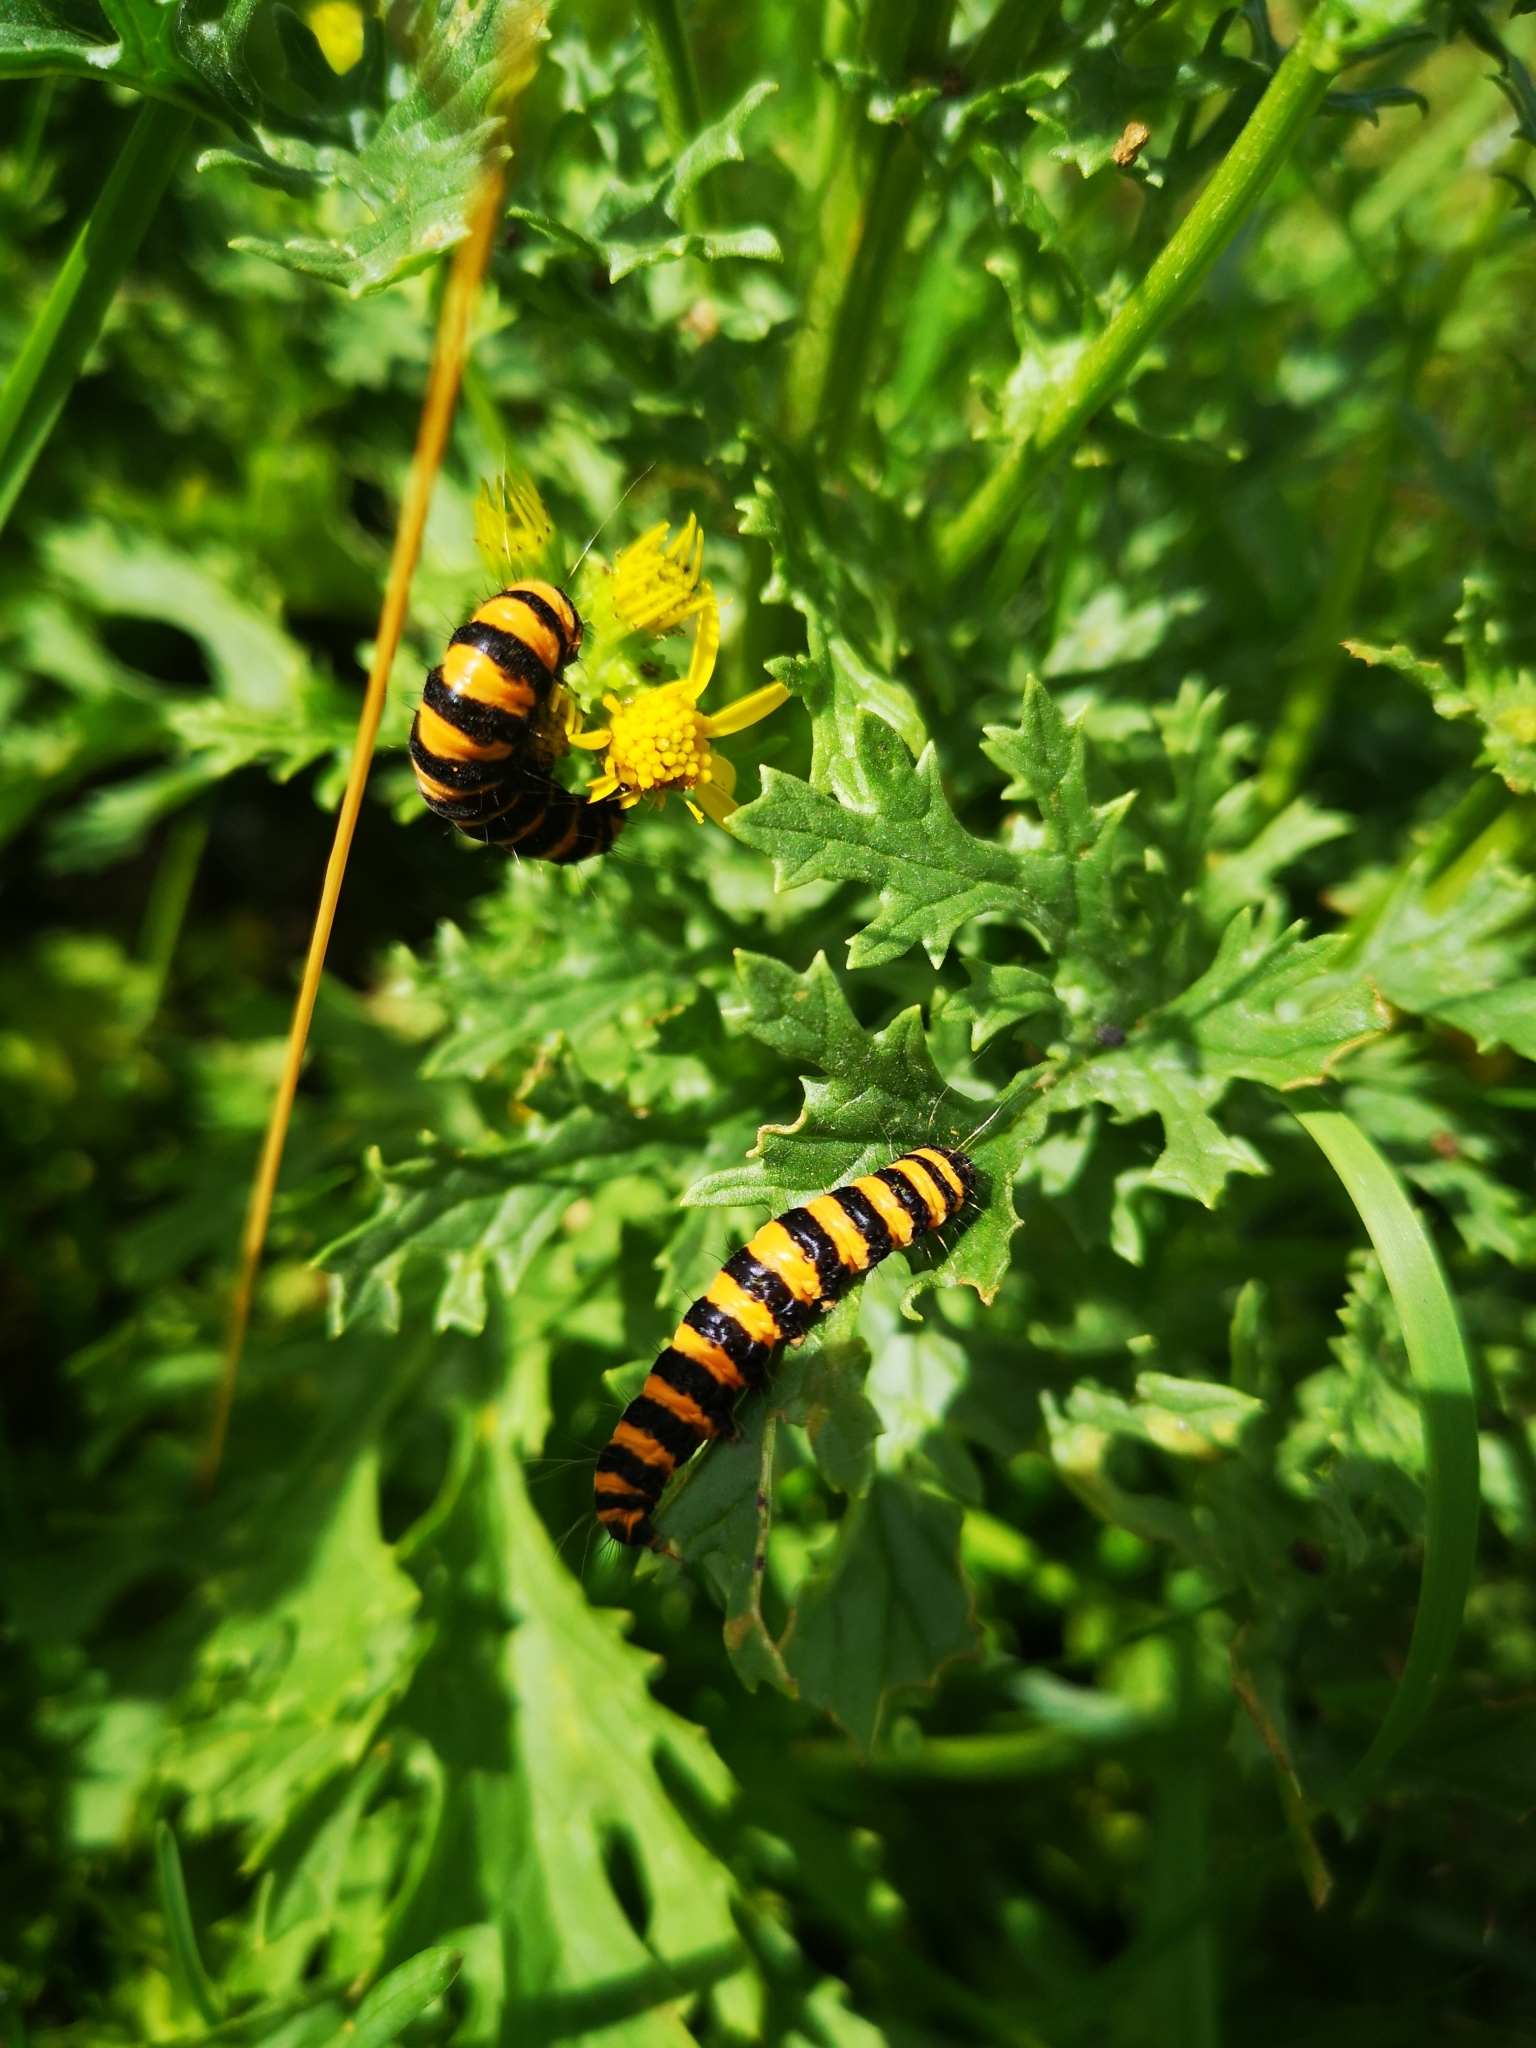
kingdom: Animalia
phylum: Arthropoda
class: Insecta
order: Lepidoptera
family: Erebidae
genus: Tyria
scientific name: Tyria jacobaeae
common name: Cinnabar
